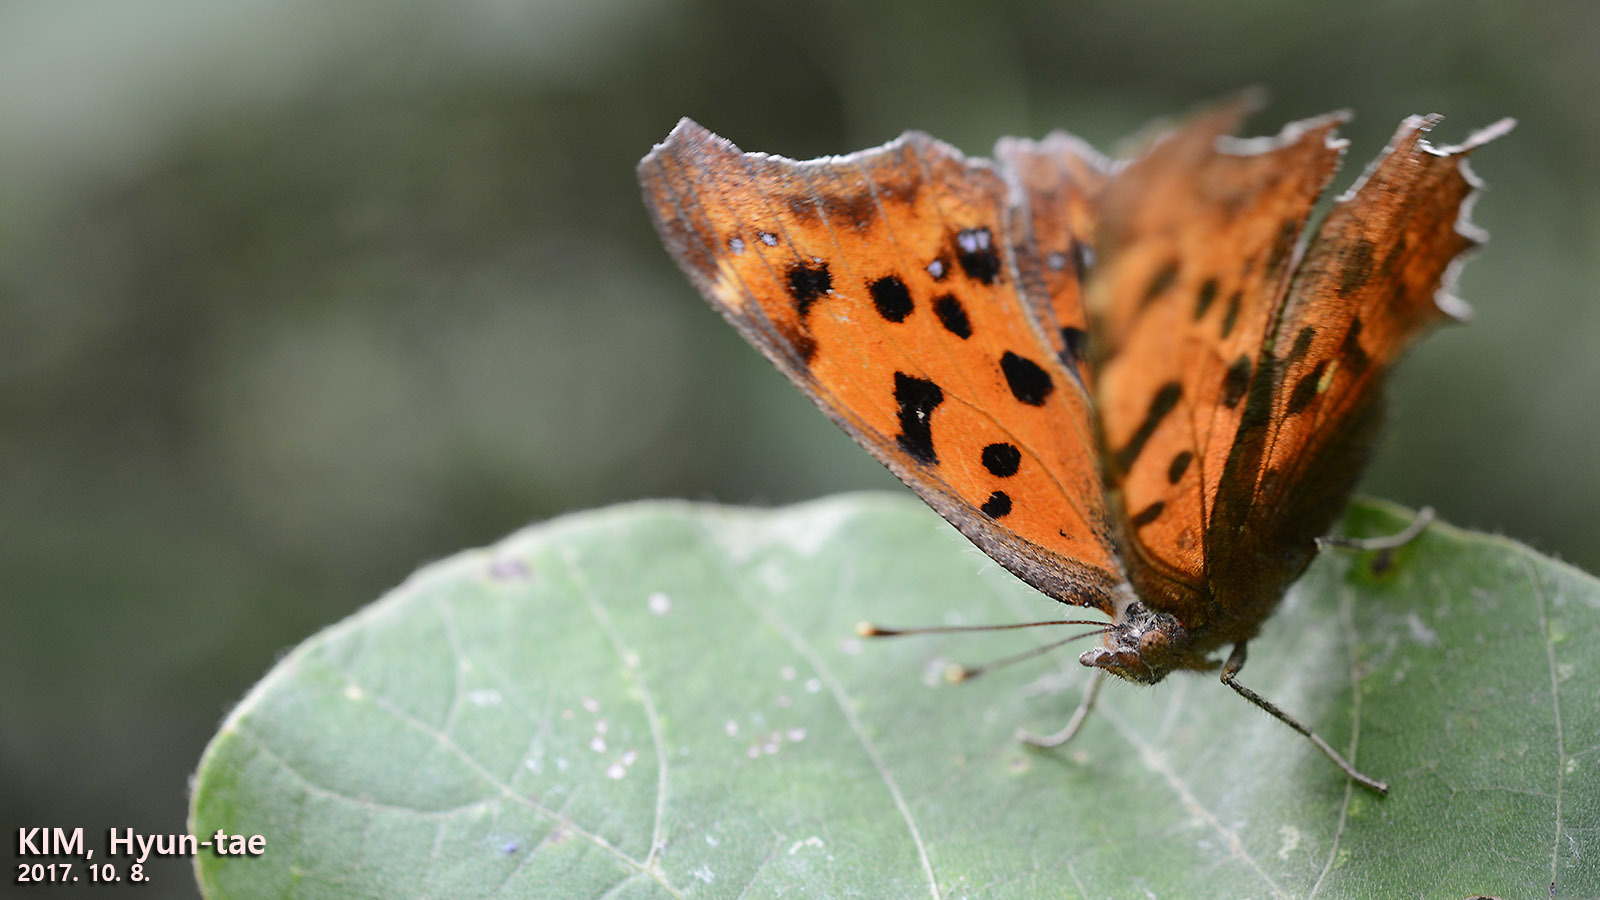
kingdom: Animalia
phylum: Arthropoda
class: Insecta
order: Lepidoptera
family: Nymphalidae
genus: Polygonia
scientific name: Polygonia c-aureum
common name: Asian comma
